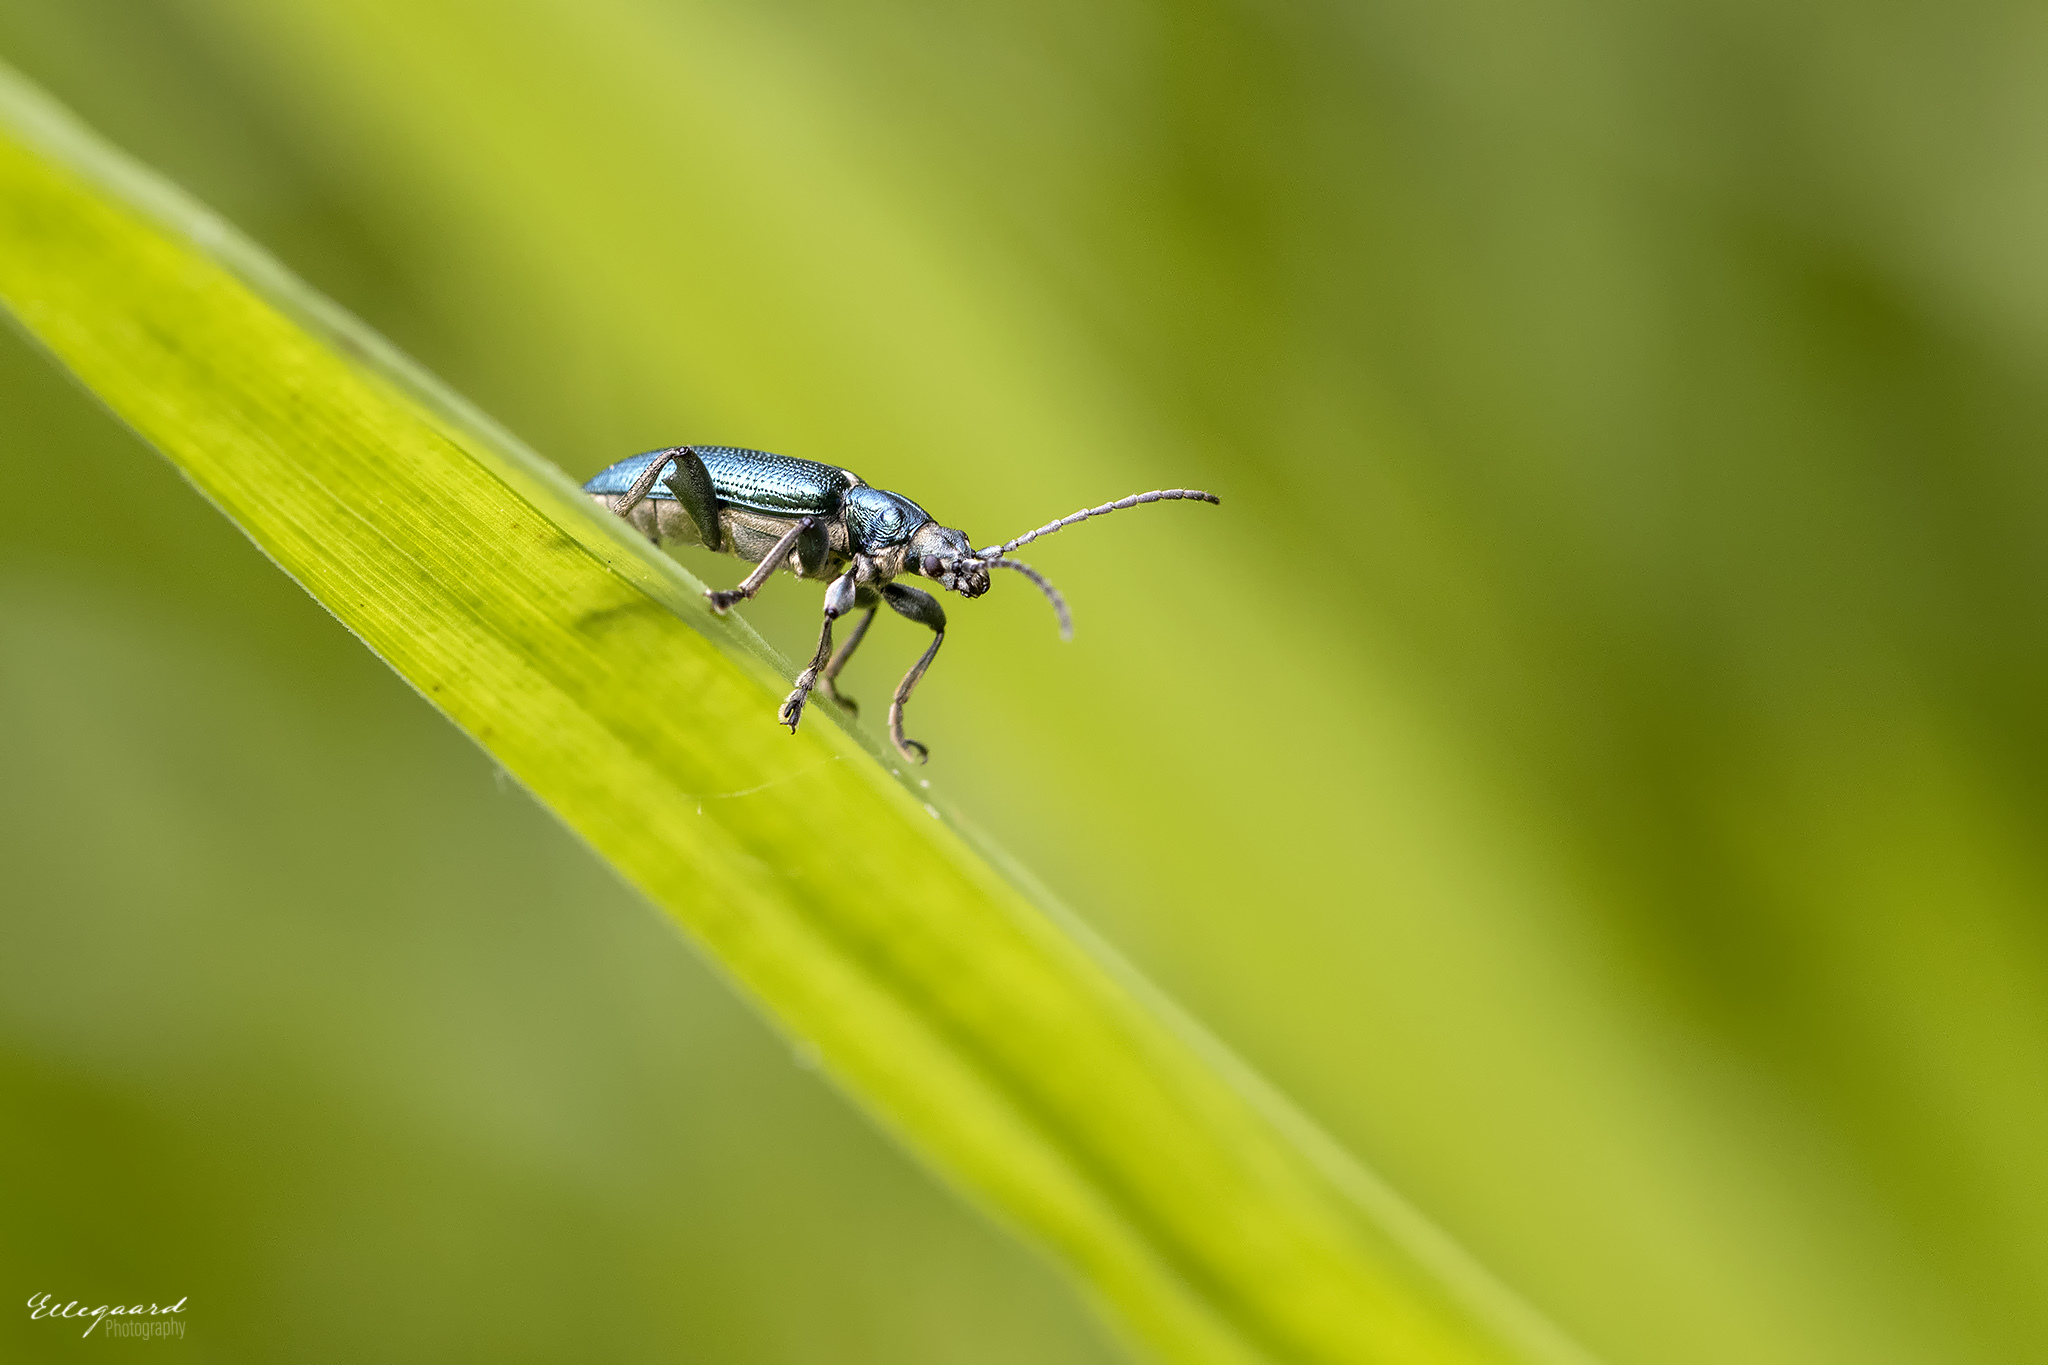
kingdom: Animalia
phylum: Arthropoda
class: Insecta
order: Coleoptera
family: Chrysomelidae
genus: Plateumaris
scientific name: Plateumaris sericea
